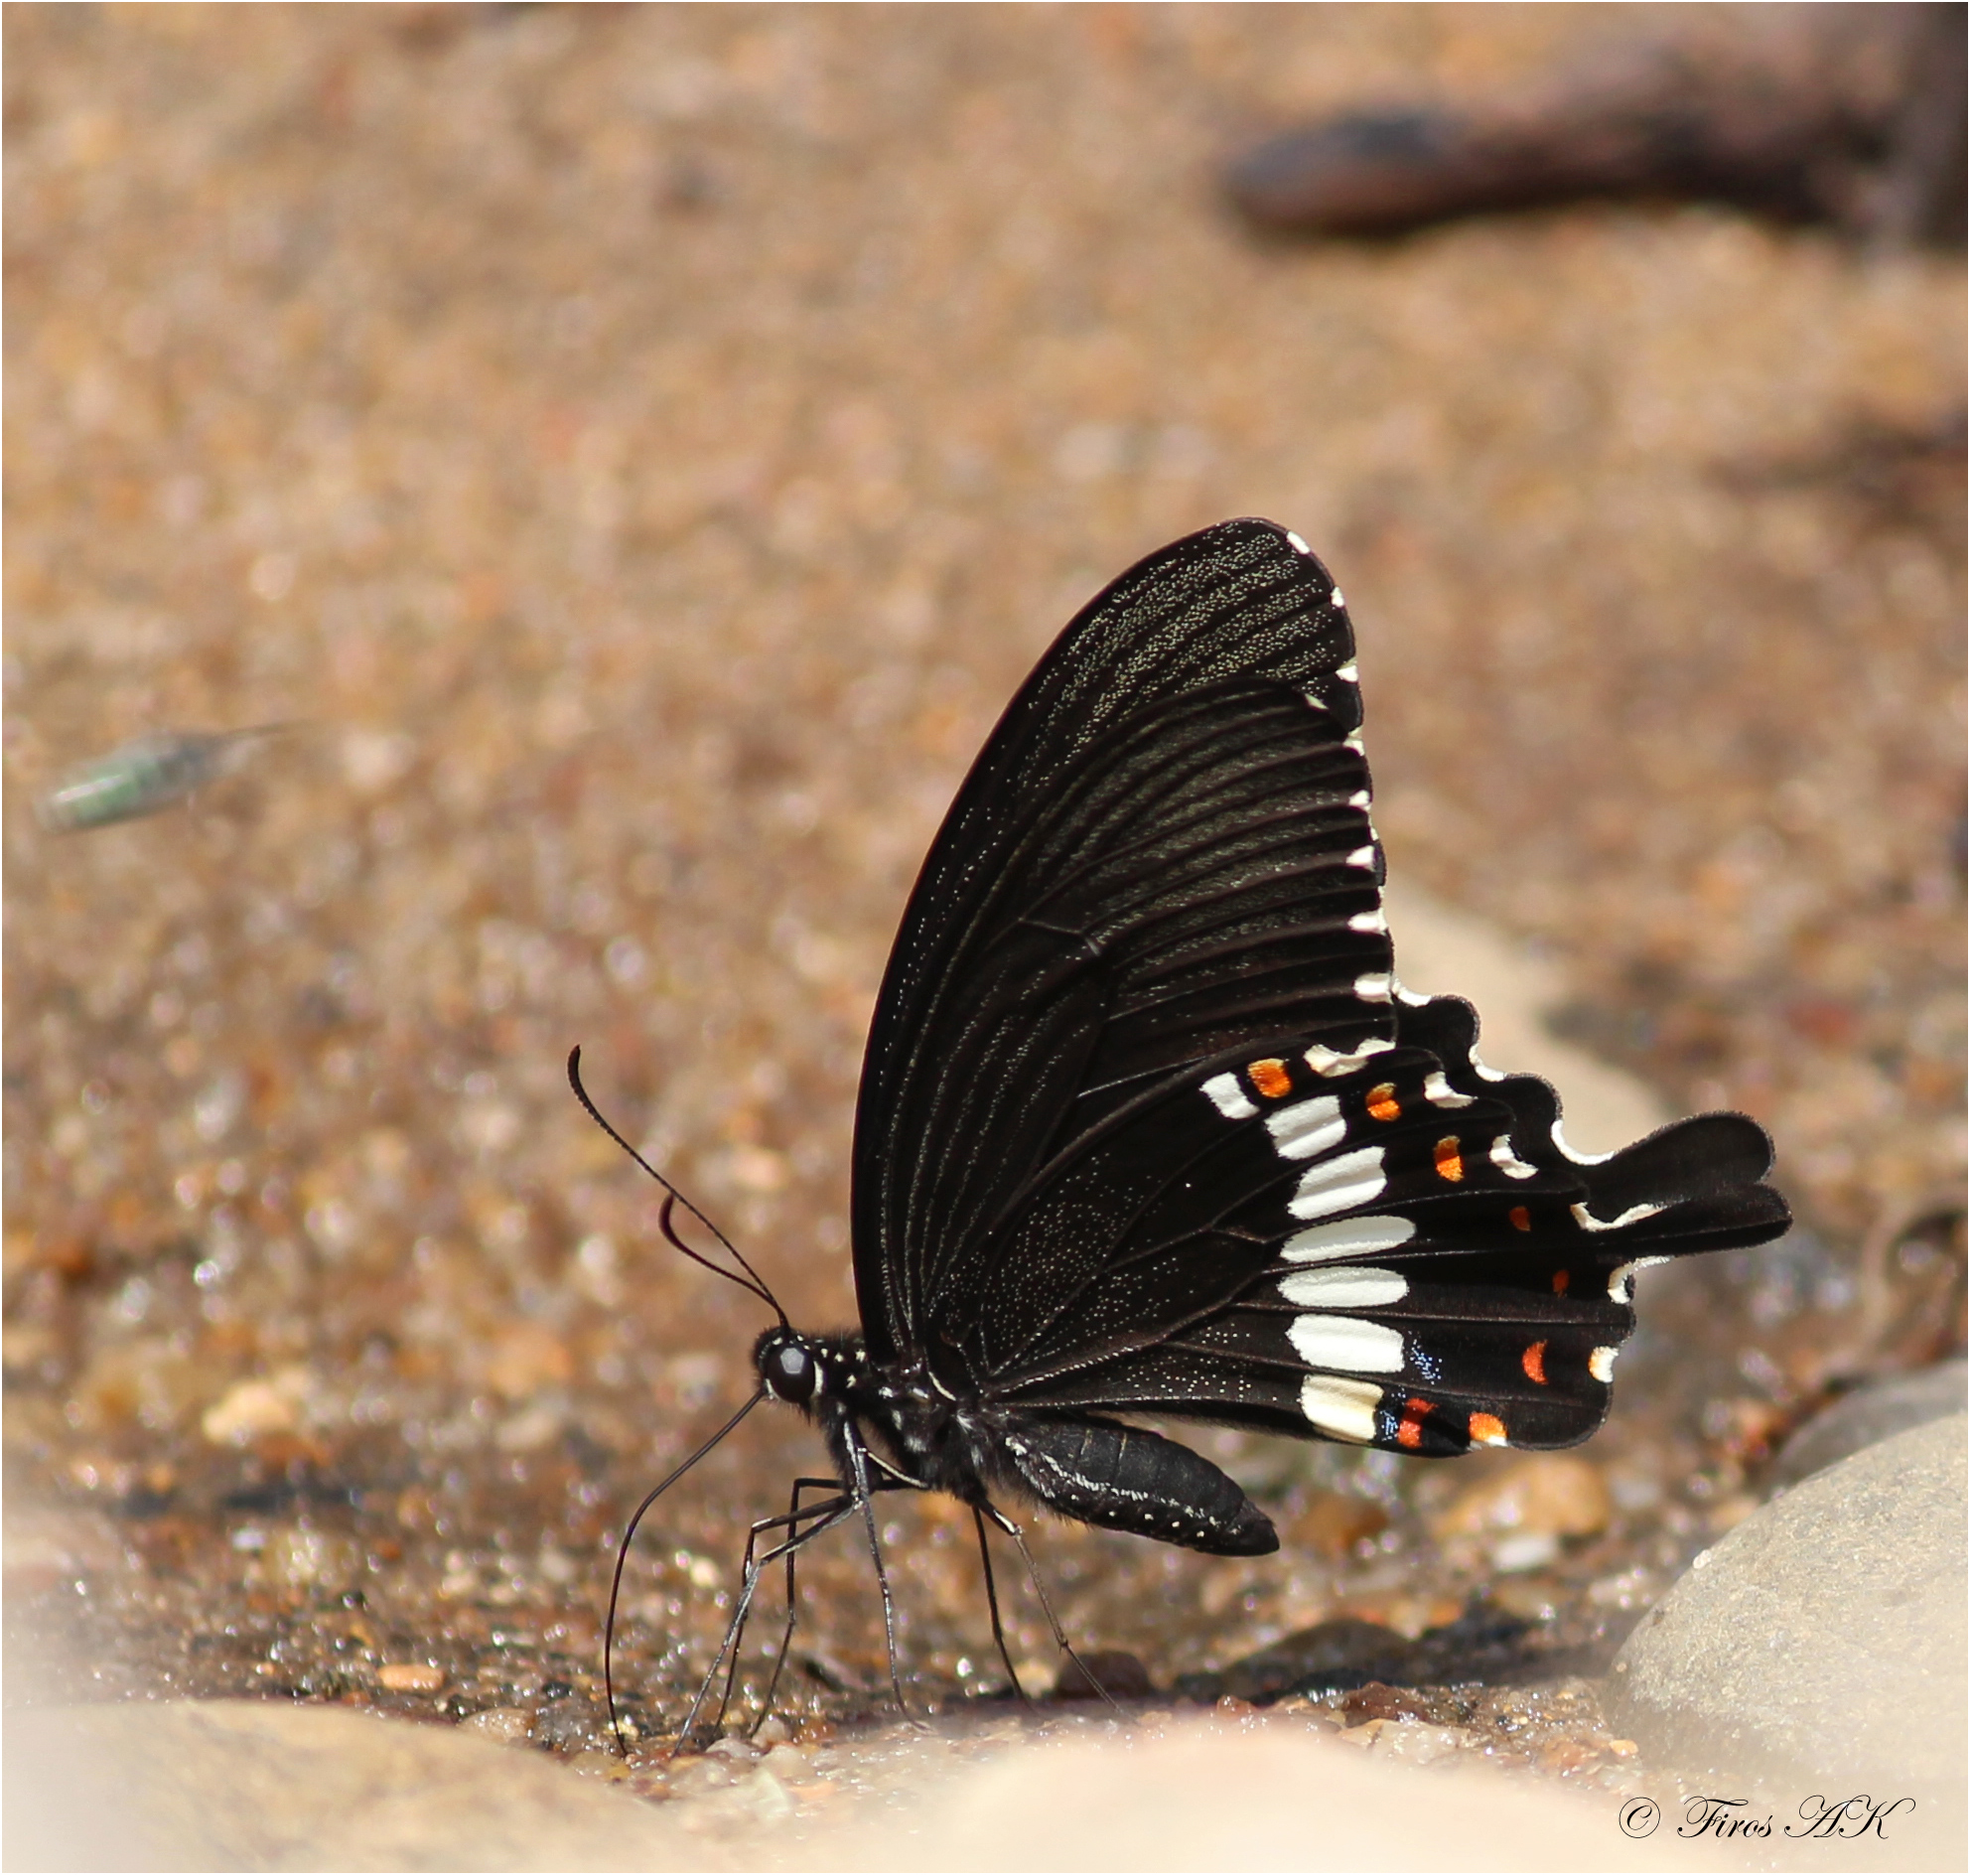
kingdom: Animalia
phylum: Arthropoda
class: Insecta
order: Lepidoptera
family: Papilionidae
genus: Papilio
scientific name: Papilio polytes
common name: Common mormon
